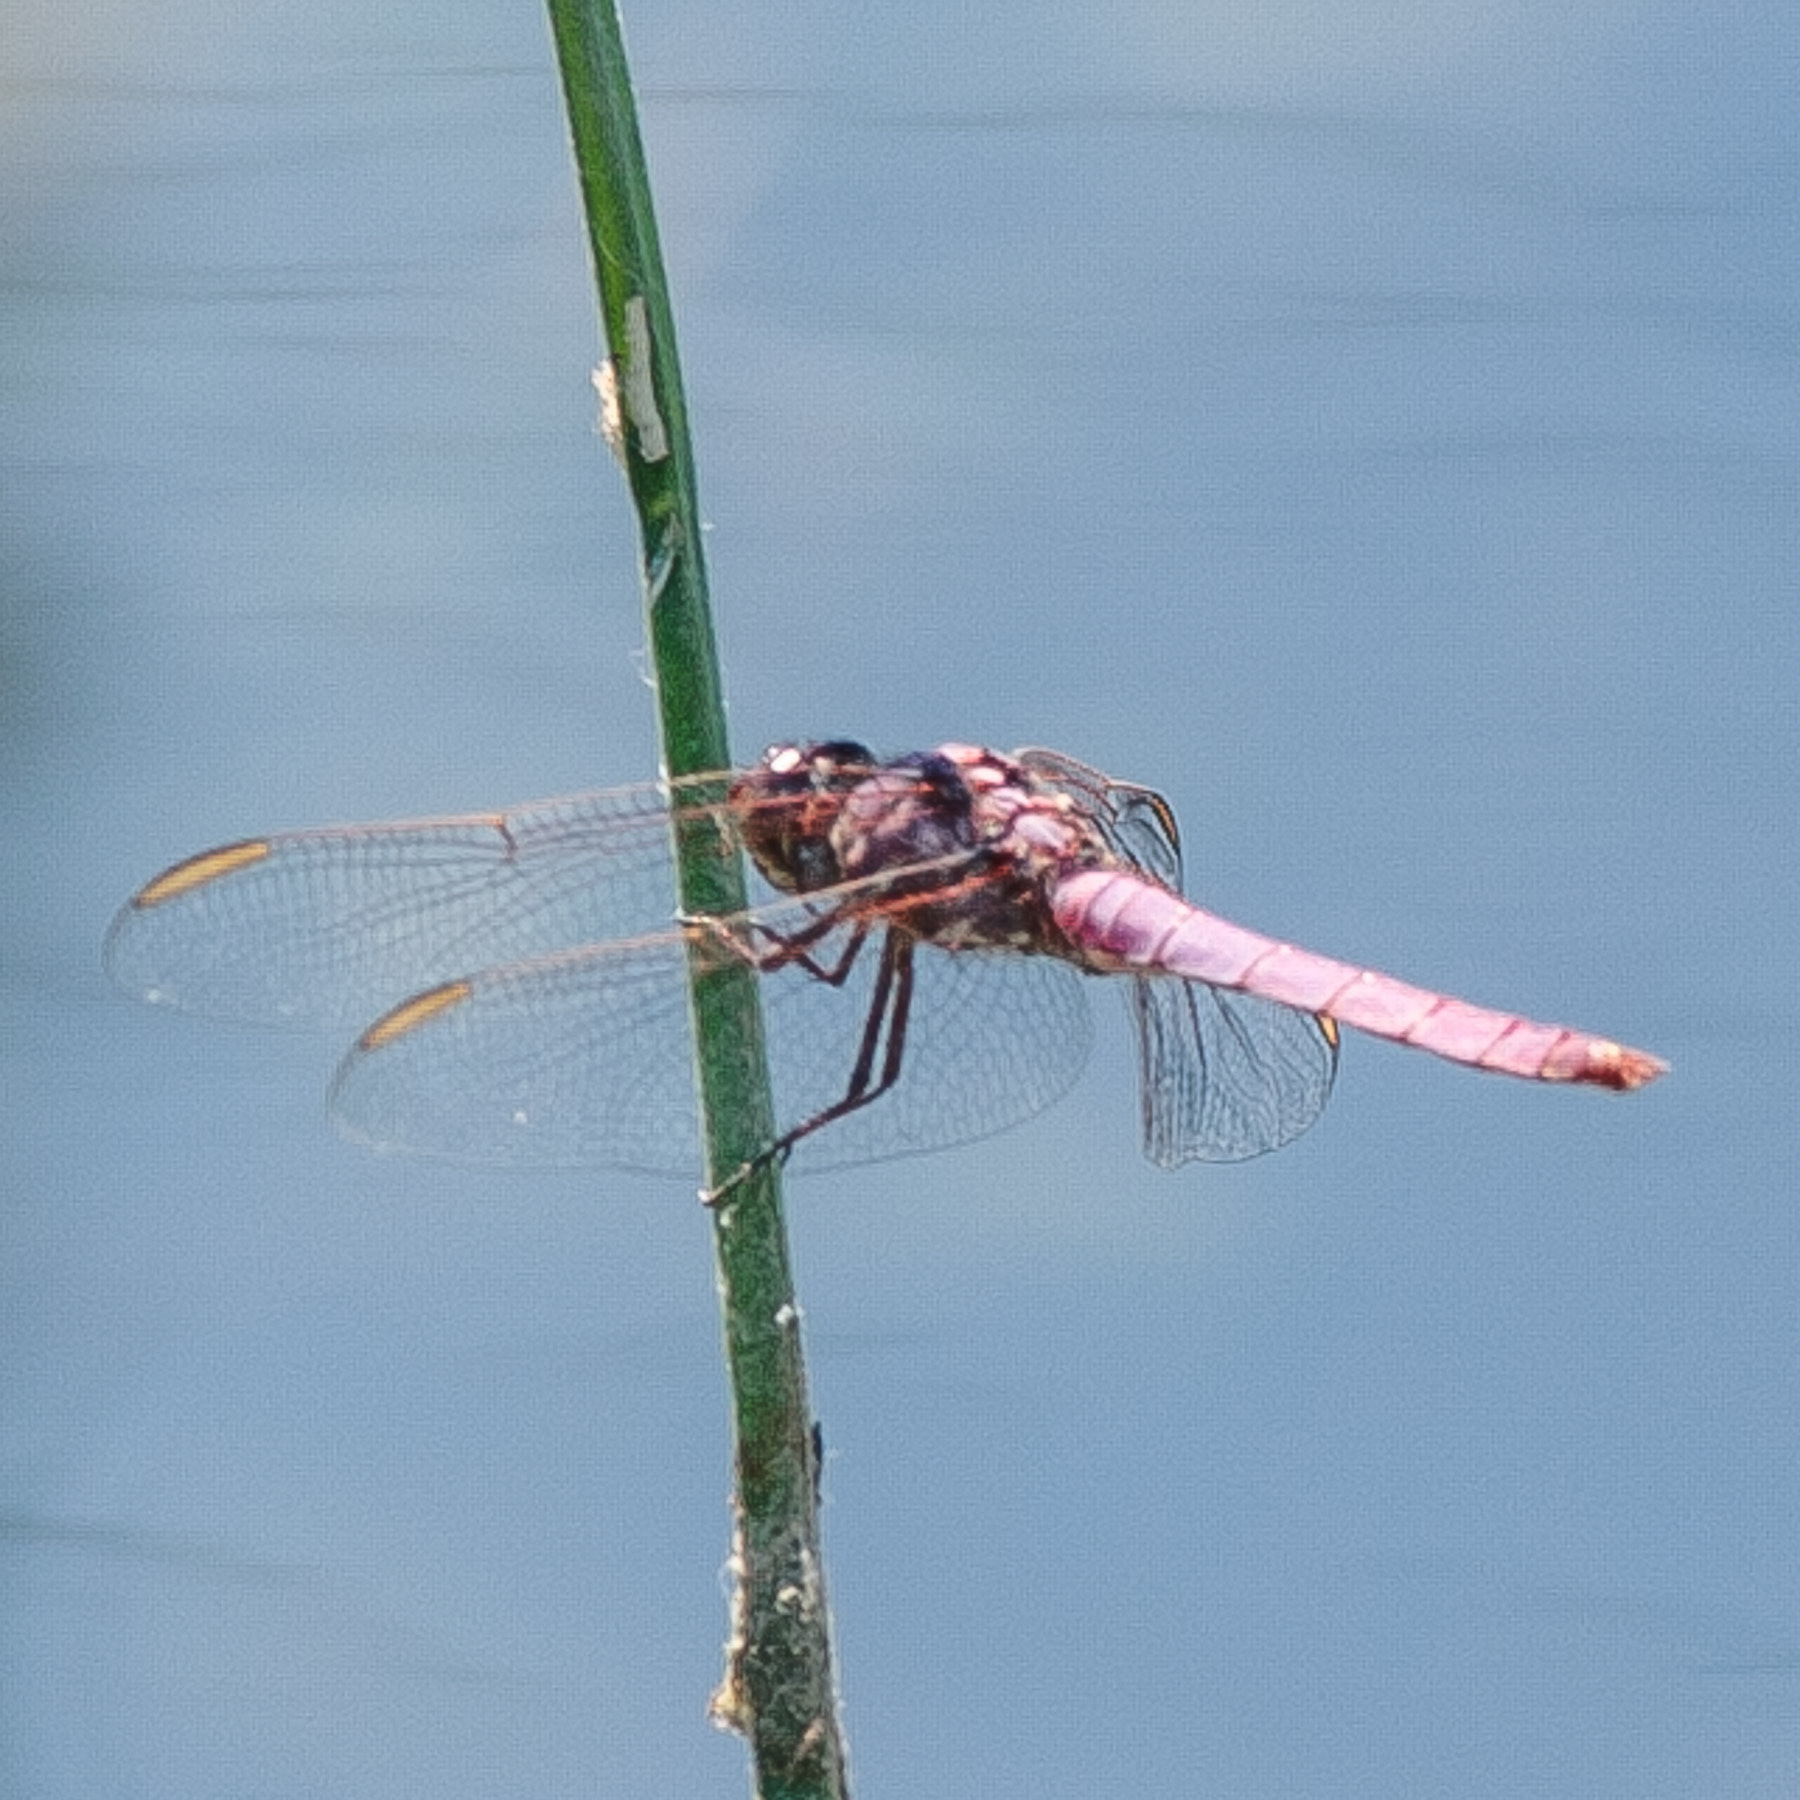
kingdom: Animalia
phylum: Arthropoda
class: Insecta
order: Odonata
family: Libellulidae
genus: Orthemis
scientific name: Orthemis ferruginea
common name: Roseate skimmer
